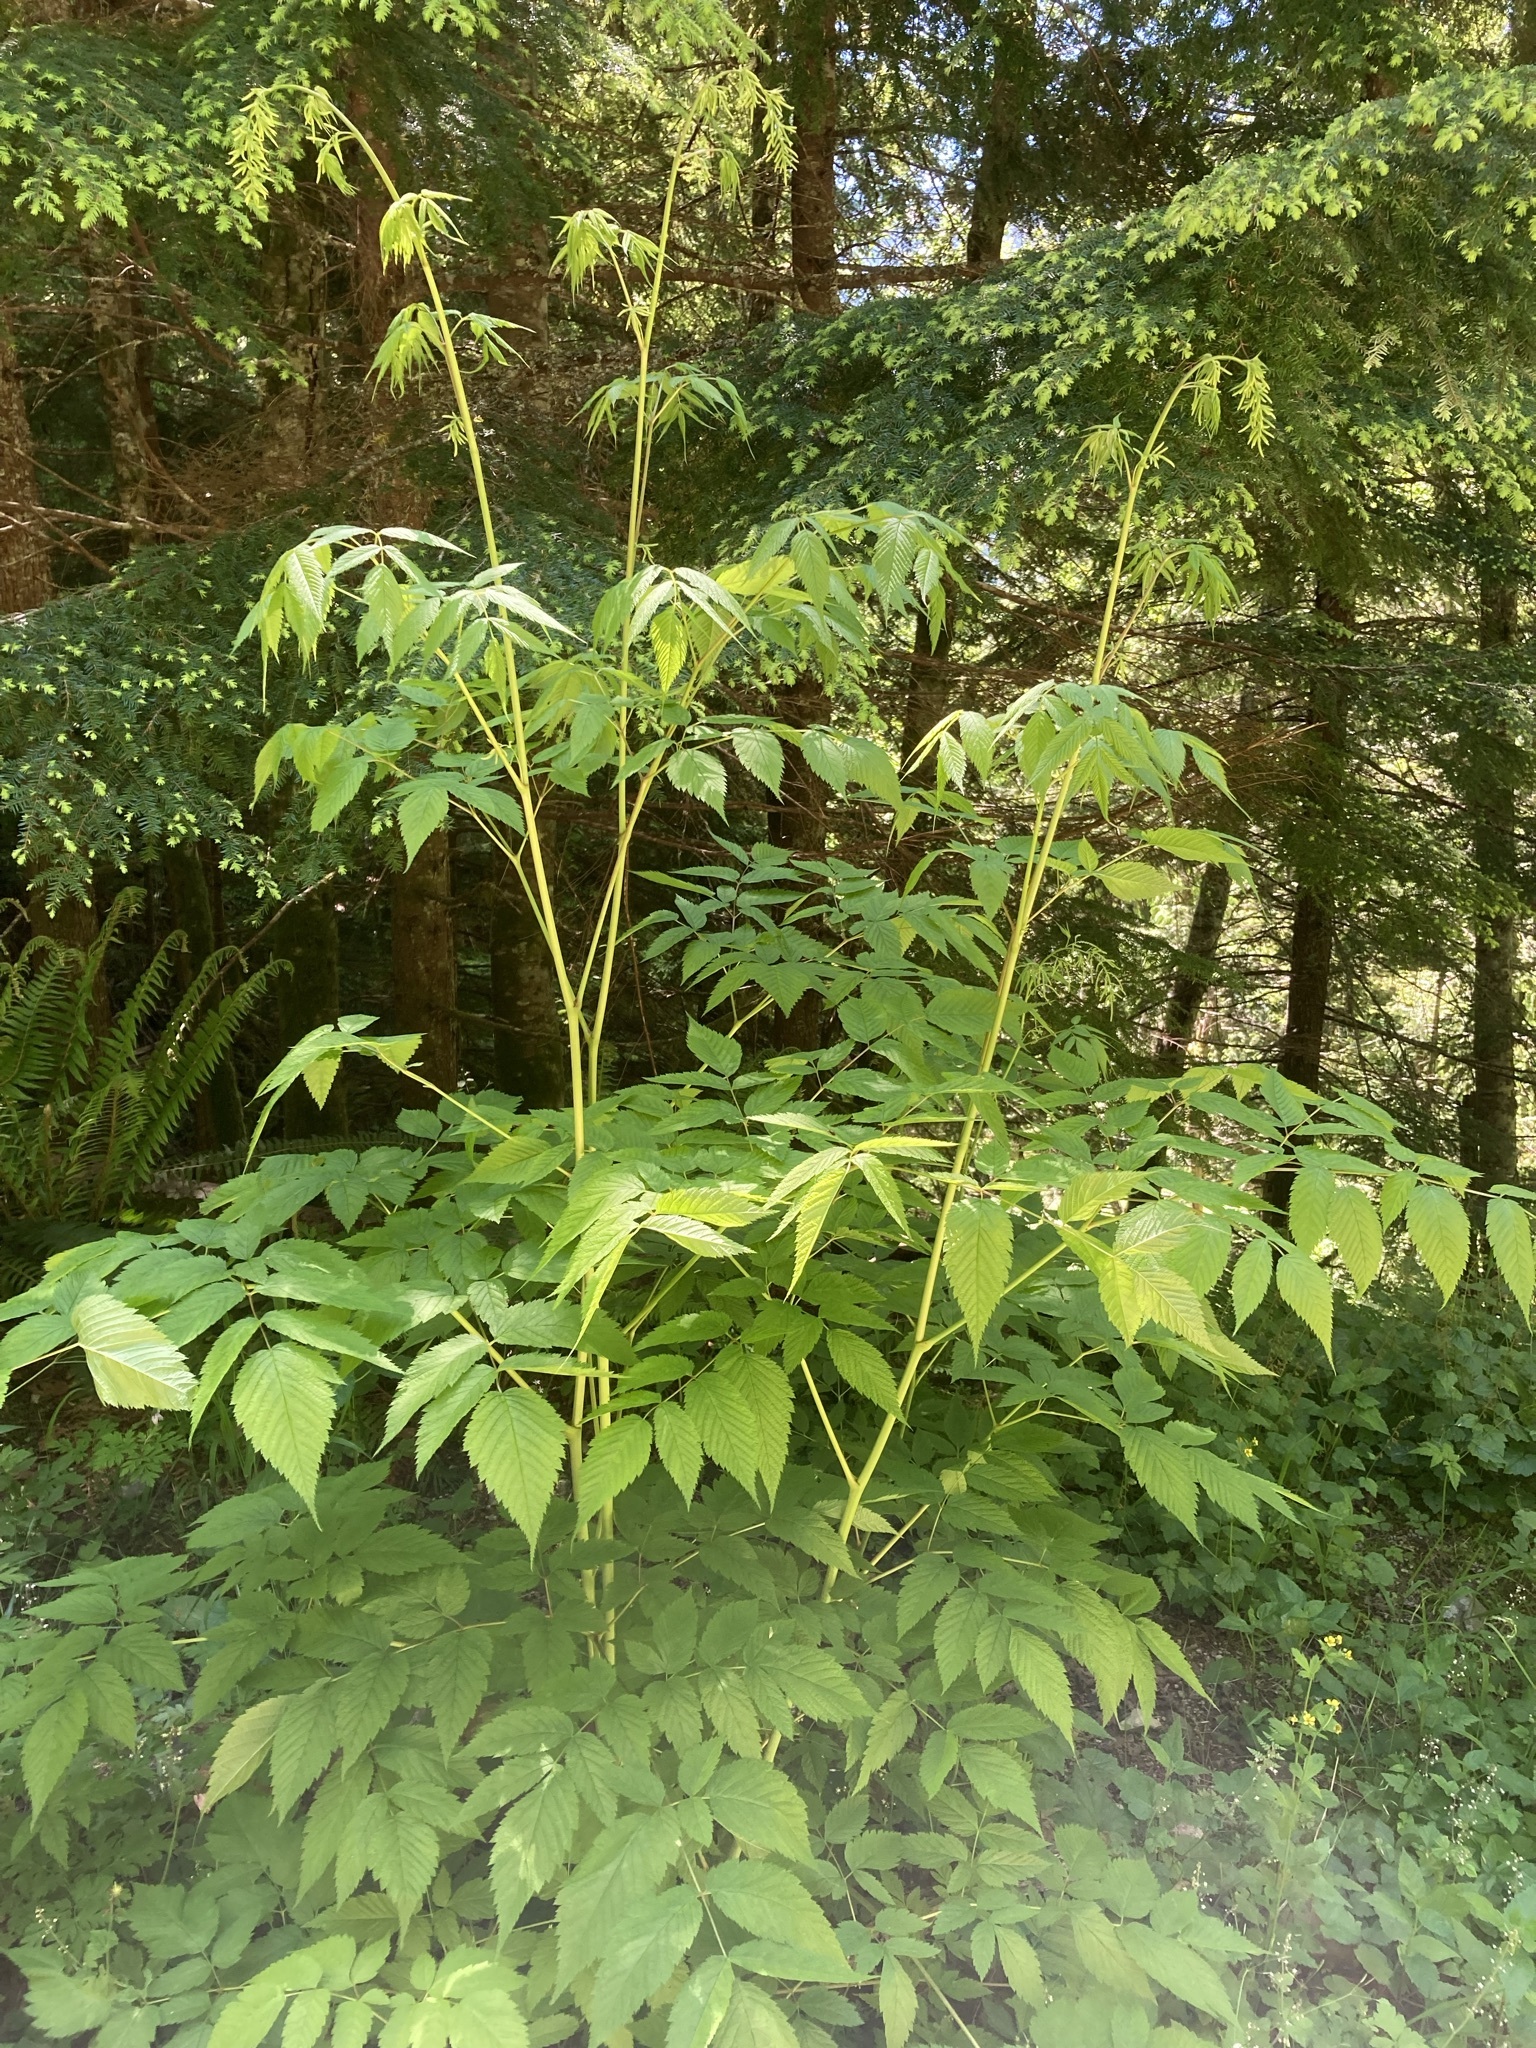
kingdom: Plantae
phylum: Tracheophyta
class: Magnoliopsida
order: Rosales
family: Rosaceae
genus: Aruncus
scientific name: Aruncus dioicus
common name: Buck's-beard
